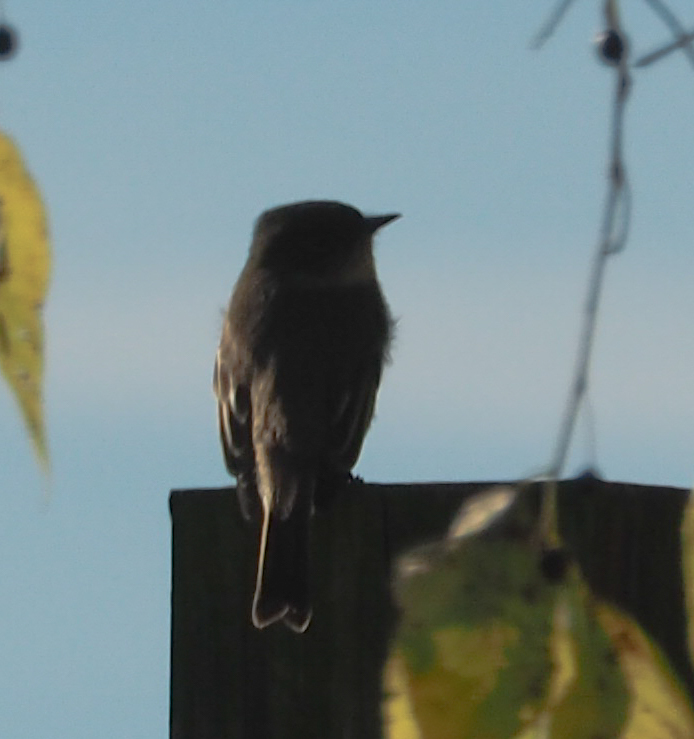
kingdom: Animalia
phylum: Chordata
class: Aves
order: Passeriformes
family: Tyrannidae
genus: Sayornis
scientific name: Sayornis phoebe
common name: Eastern phoebe
